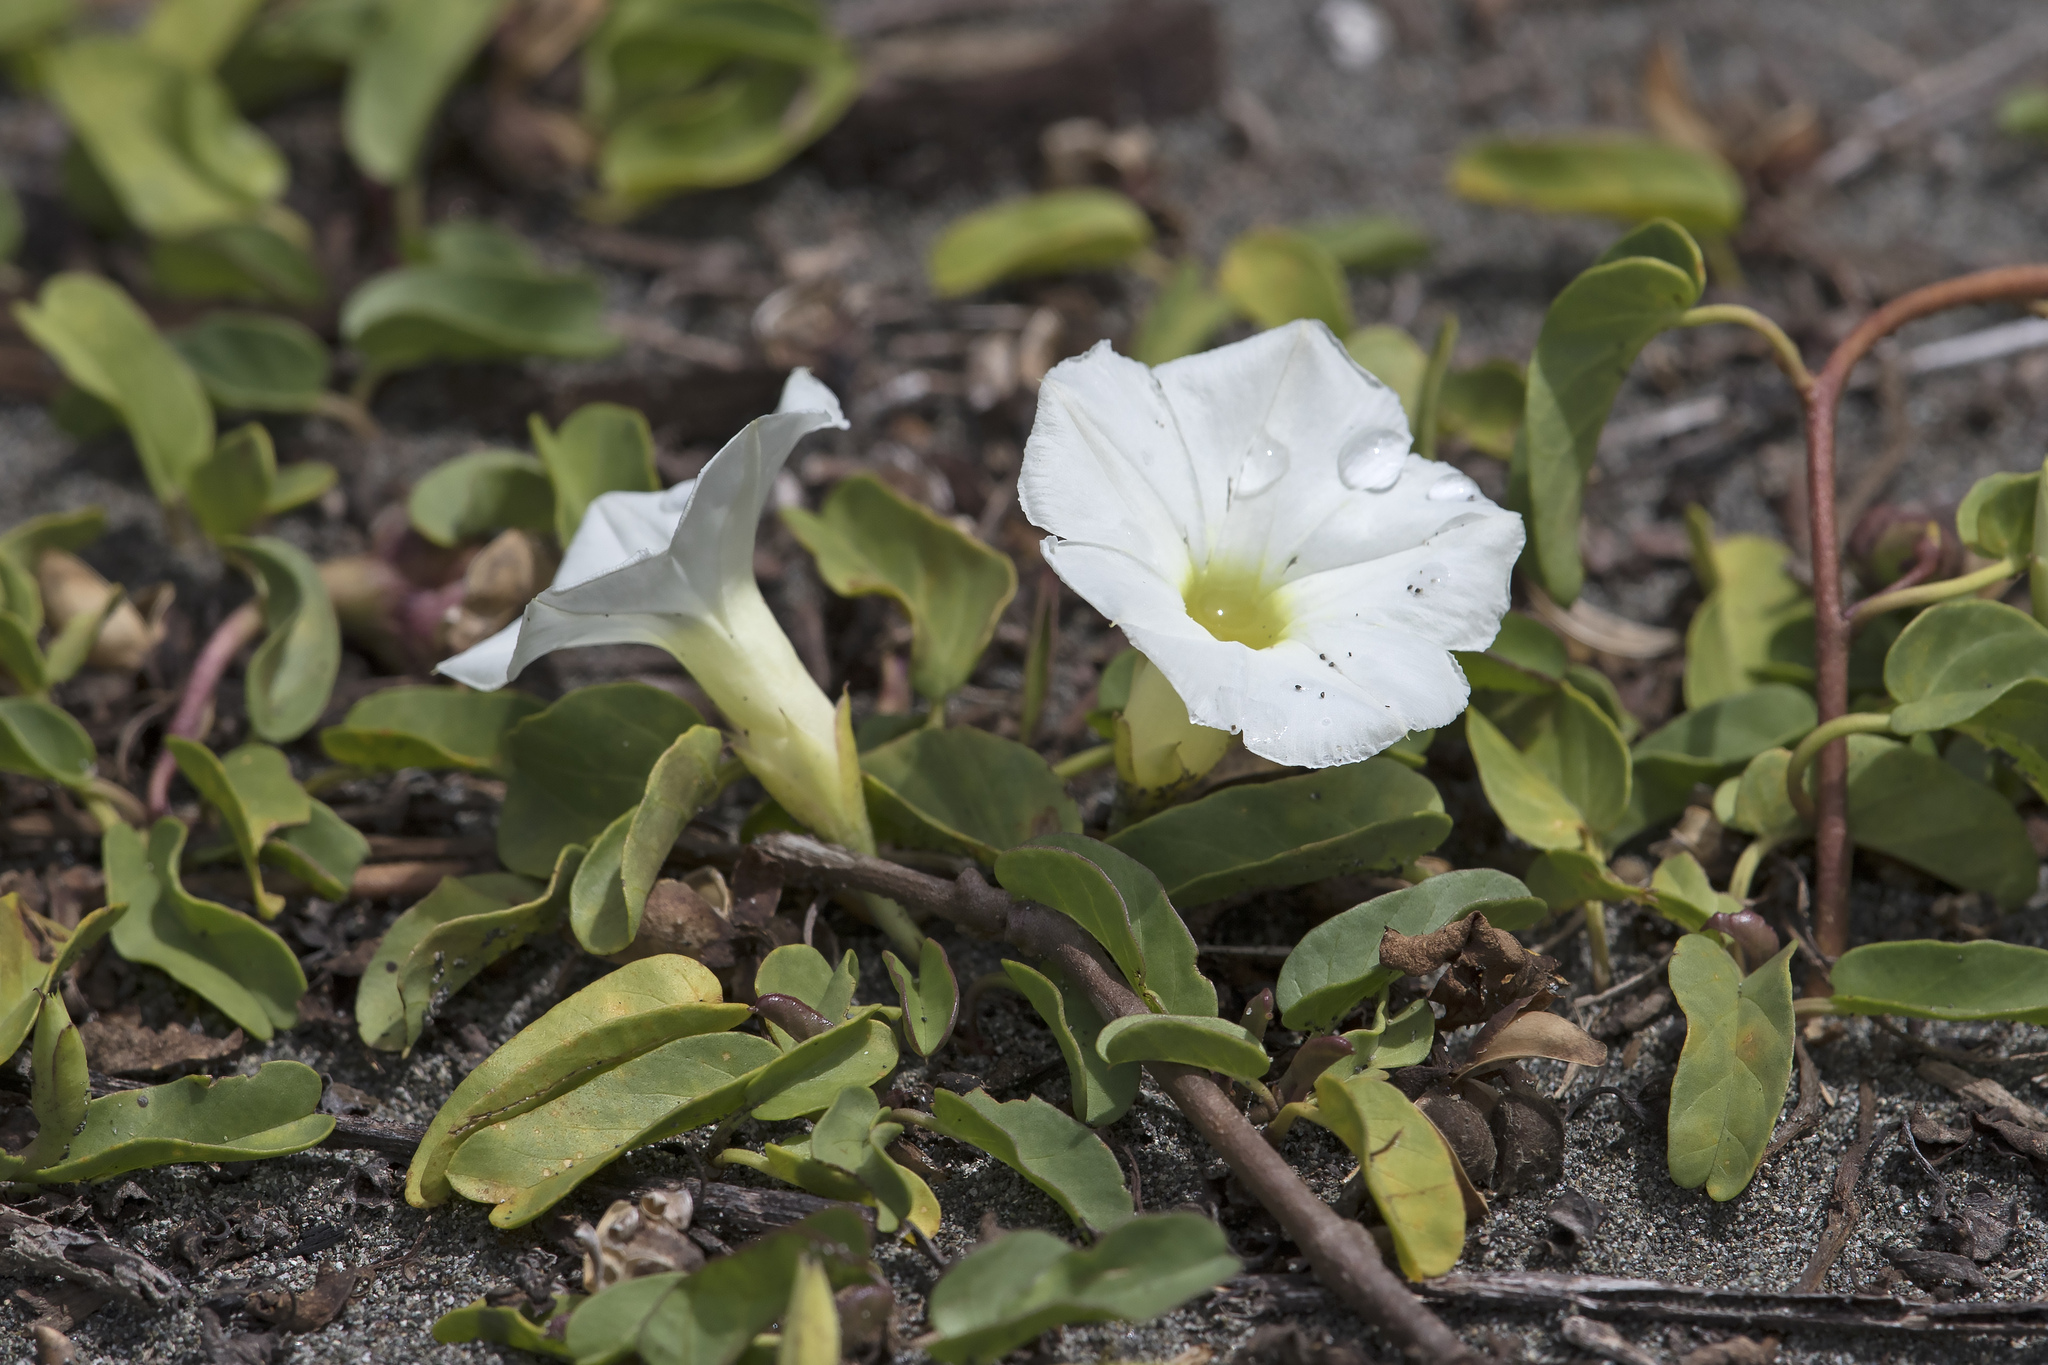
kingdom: Plantae
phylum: Tracheophyta
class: Magnoliopsida
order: Solanales
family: Convolvulaceae
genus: Ipomoea
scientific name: Ipomoea imperati
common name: Fiddle-leaf morning-glory
